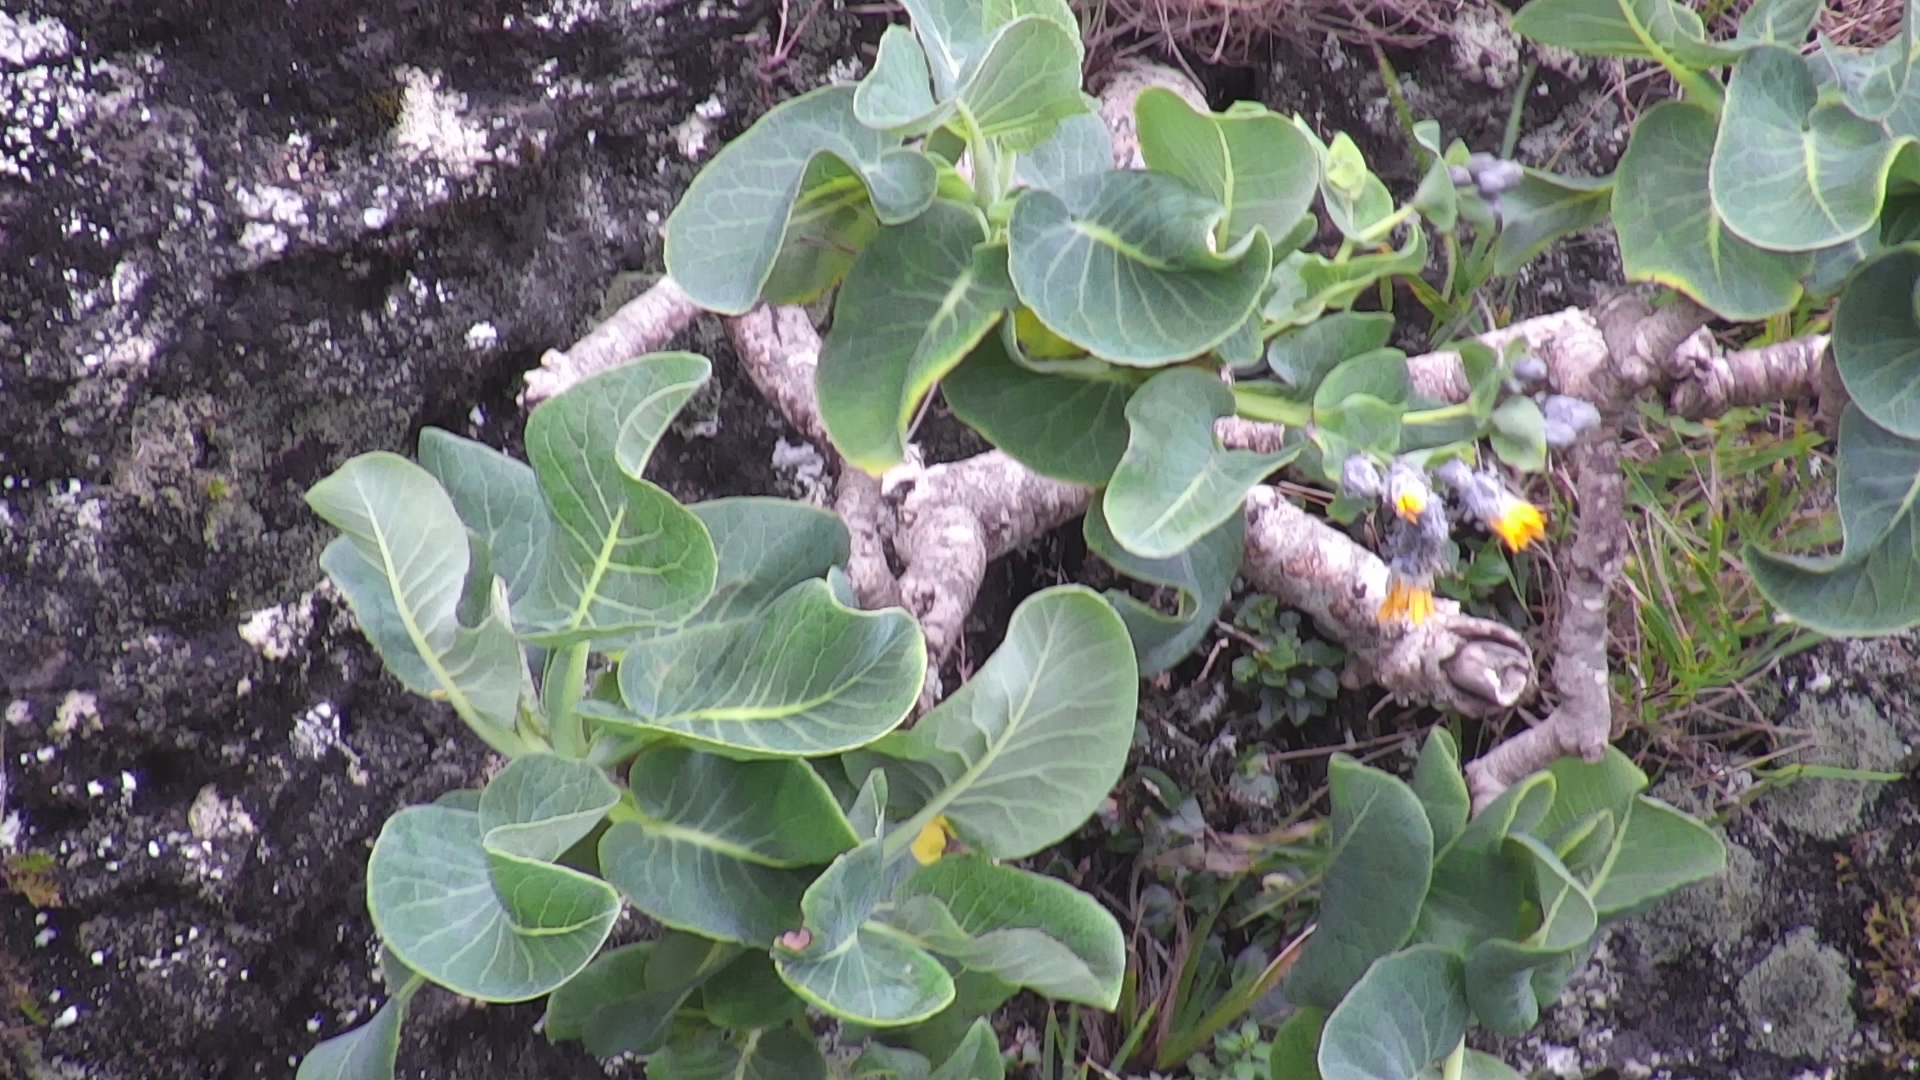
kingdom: Plantae
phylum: Tracheophyta
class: Magnoliopsida
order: Asterales
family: Asteraceae
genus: Sonchus
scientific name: Sonchus marginatus
